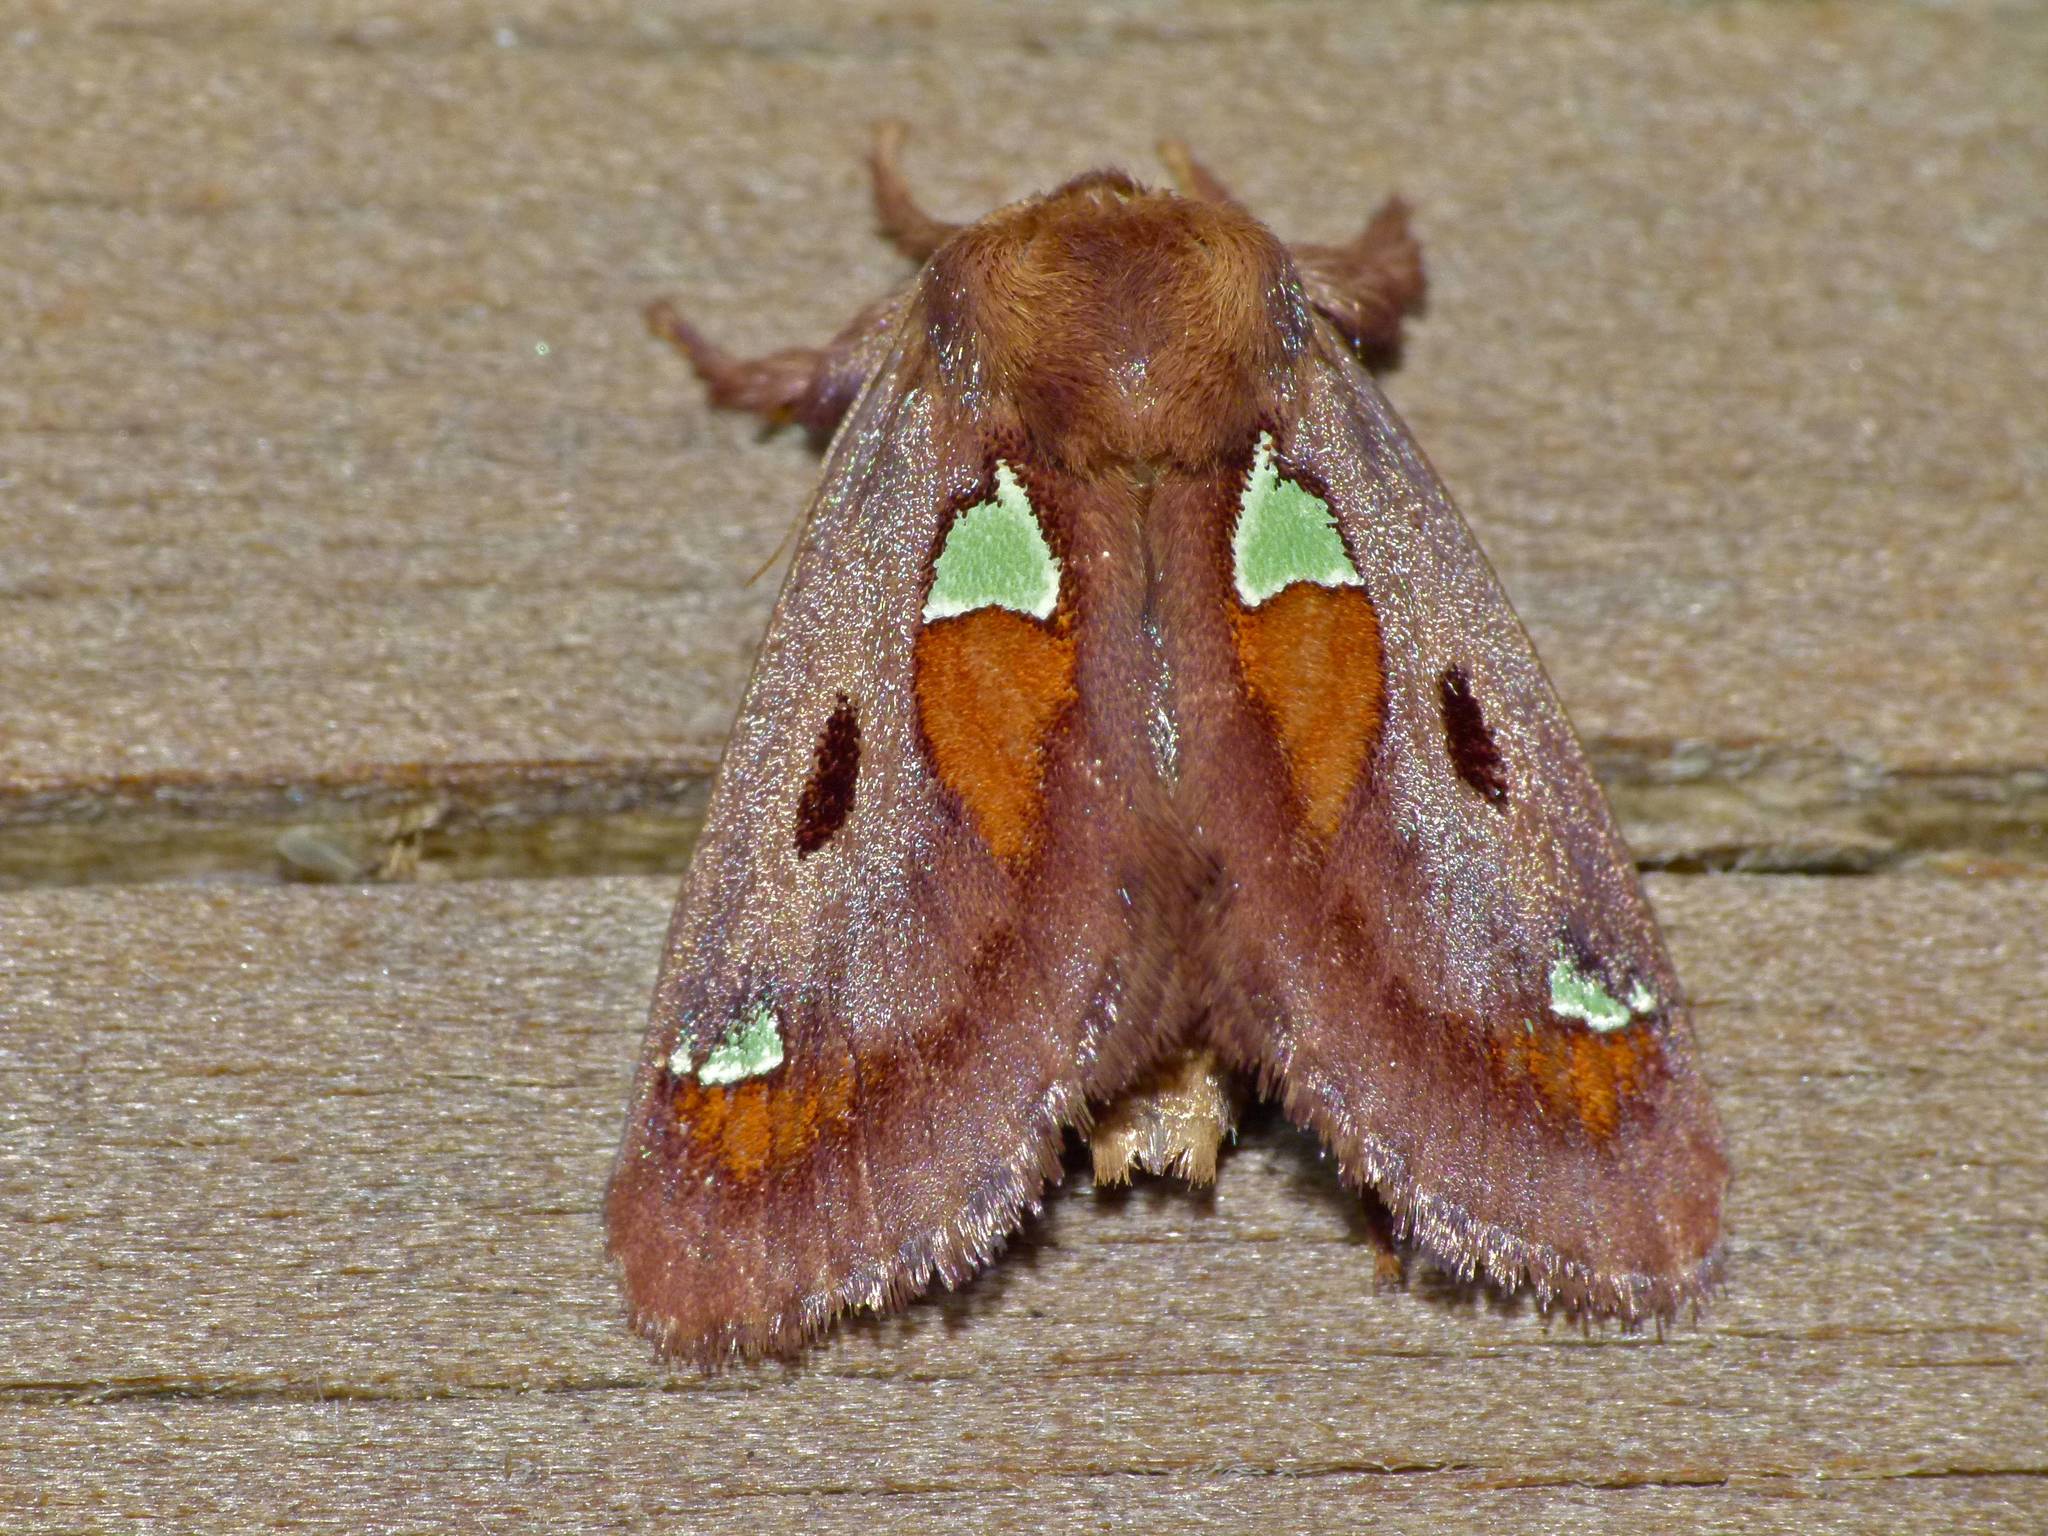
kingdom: Animalia
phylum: Arthropoda
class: Insecta
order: Lepidoptera
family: Limacodidae
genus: Euclea
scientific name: Euclea delphinii
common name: Spiny oak-slug moth
